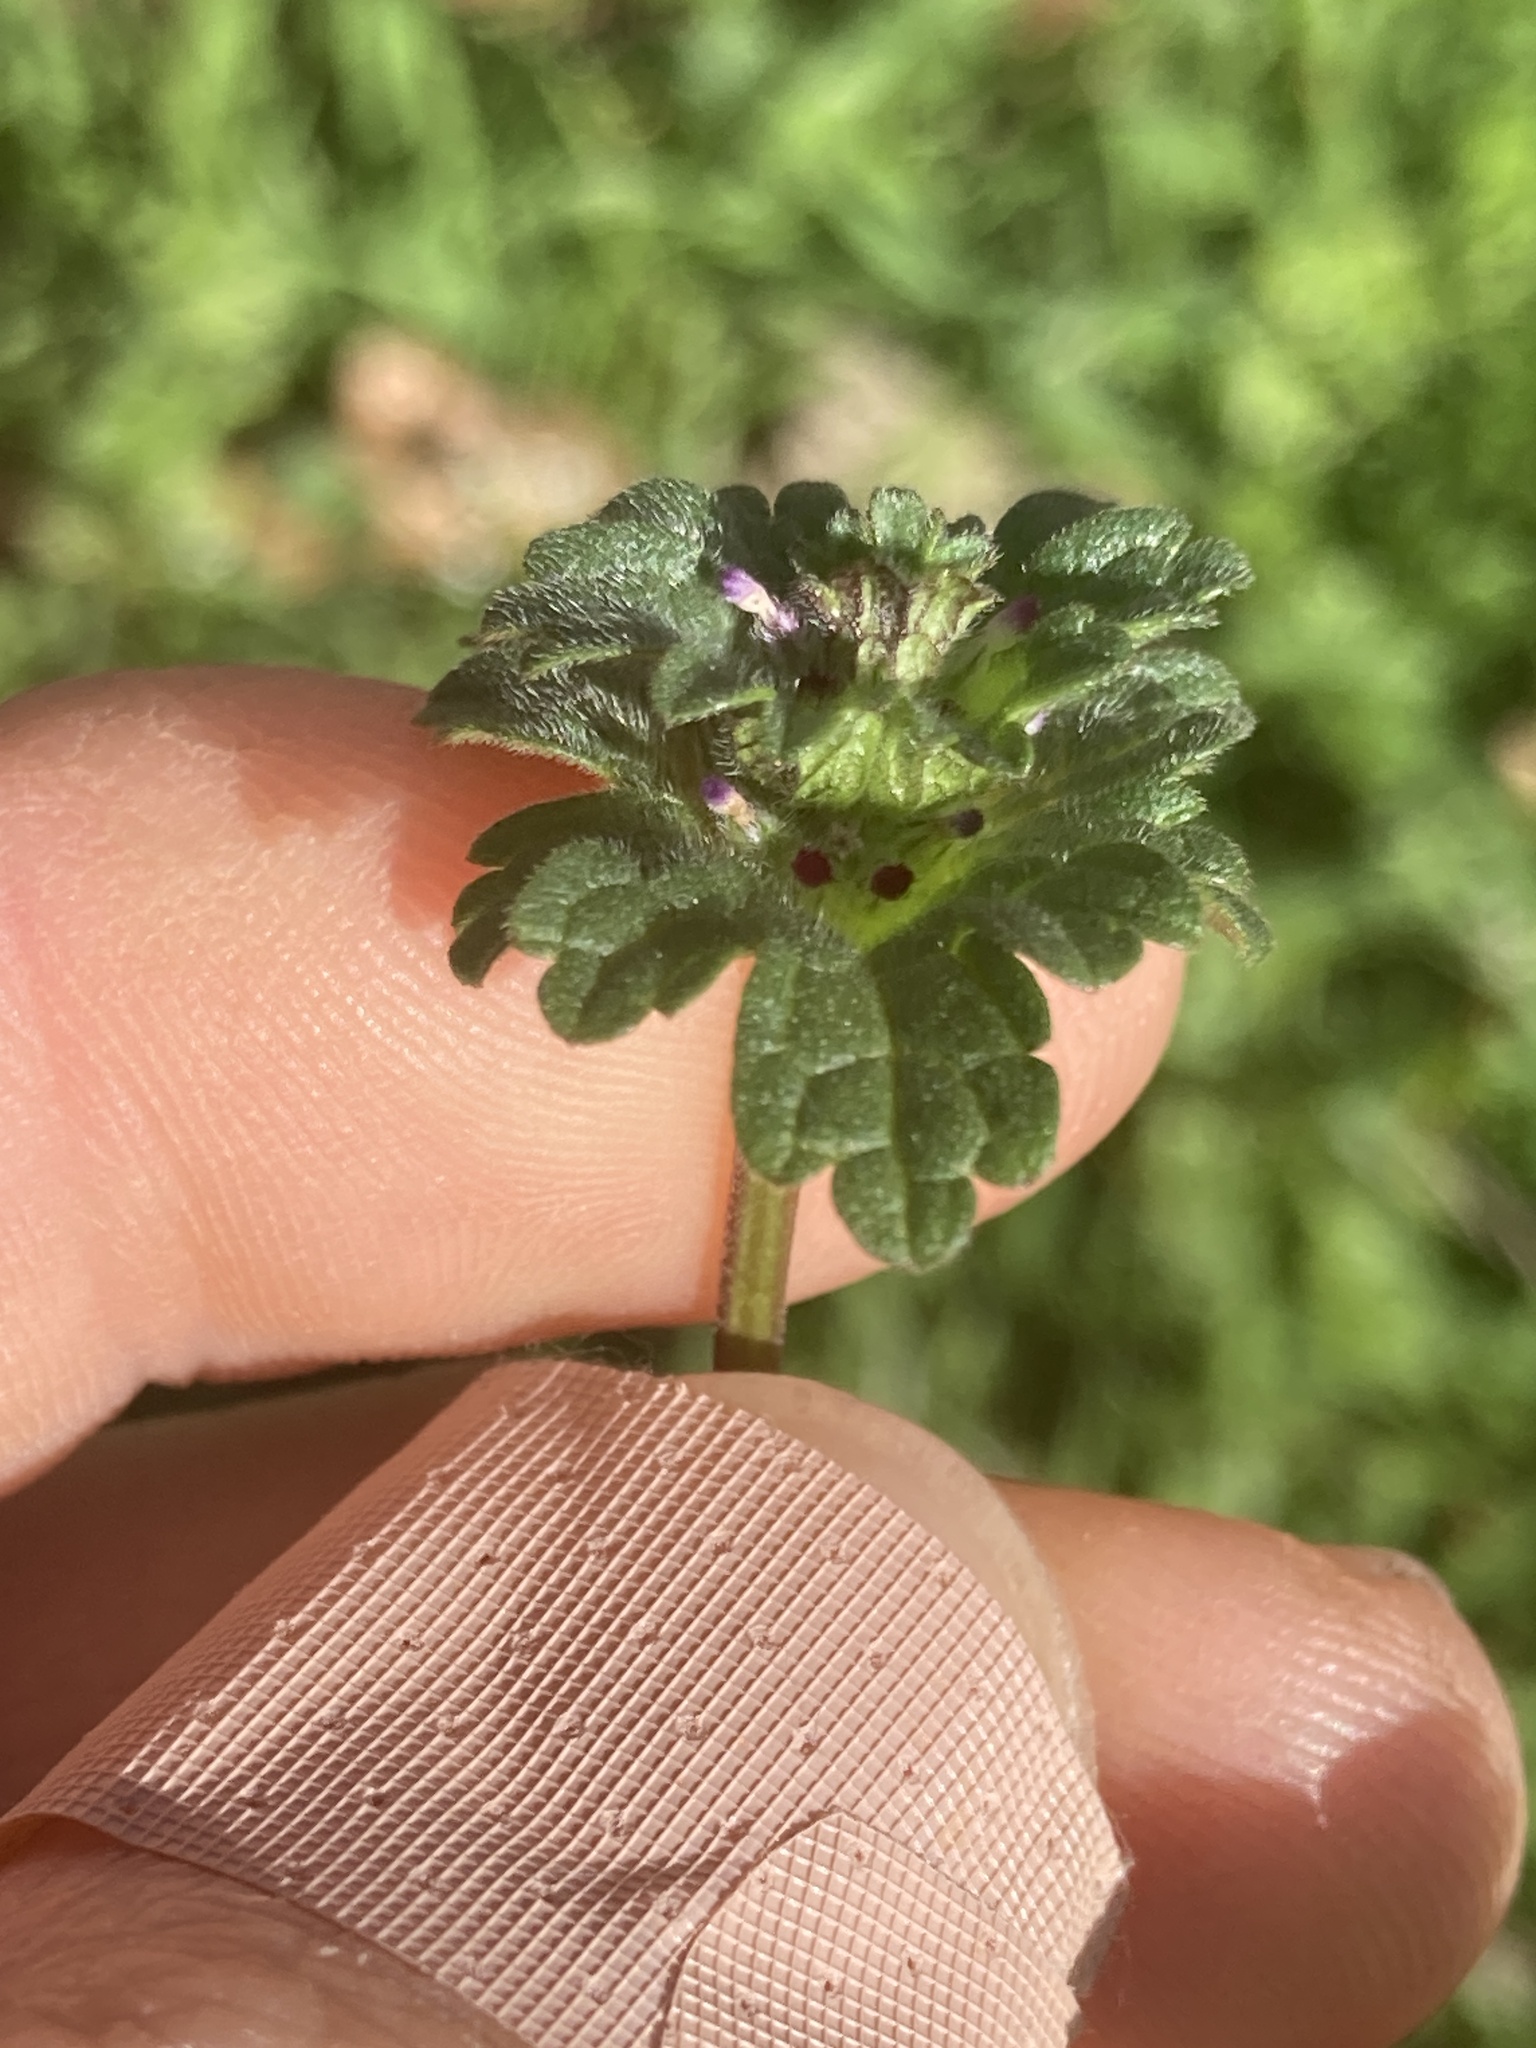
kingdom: Plantae
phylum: Tracheophyta
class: Magnoliopsida
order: Lamiales
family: Lamiaceae
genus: Lamium
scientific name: Lamium amplexicaule
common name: Henbit dead-nettle
